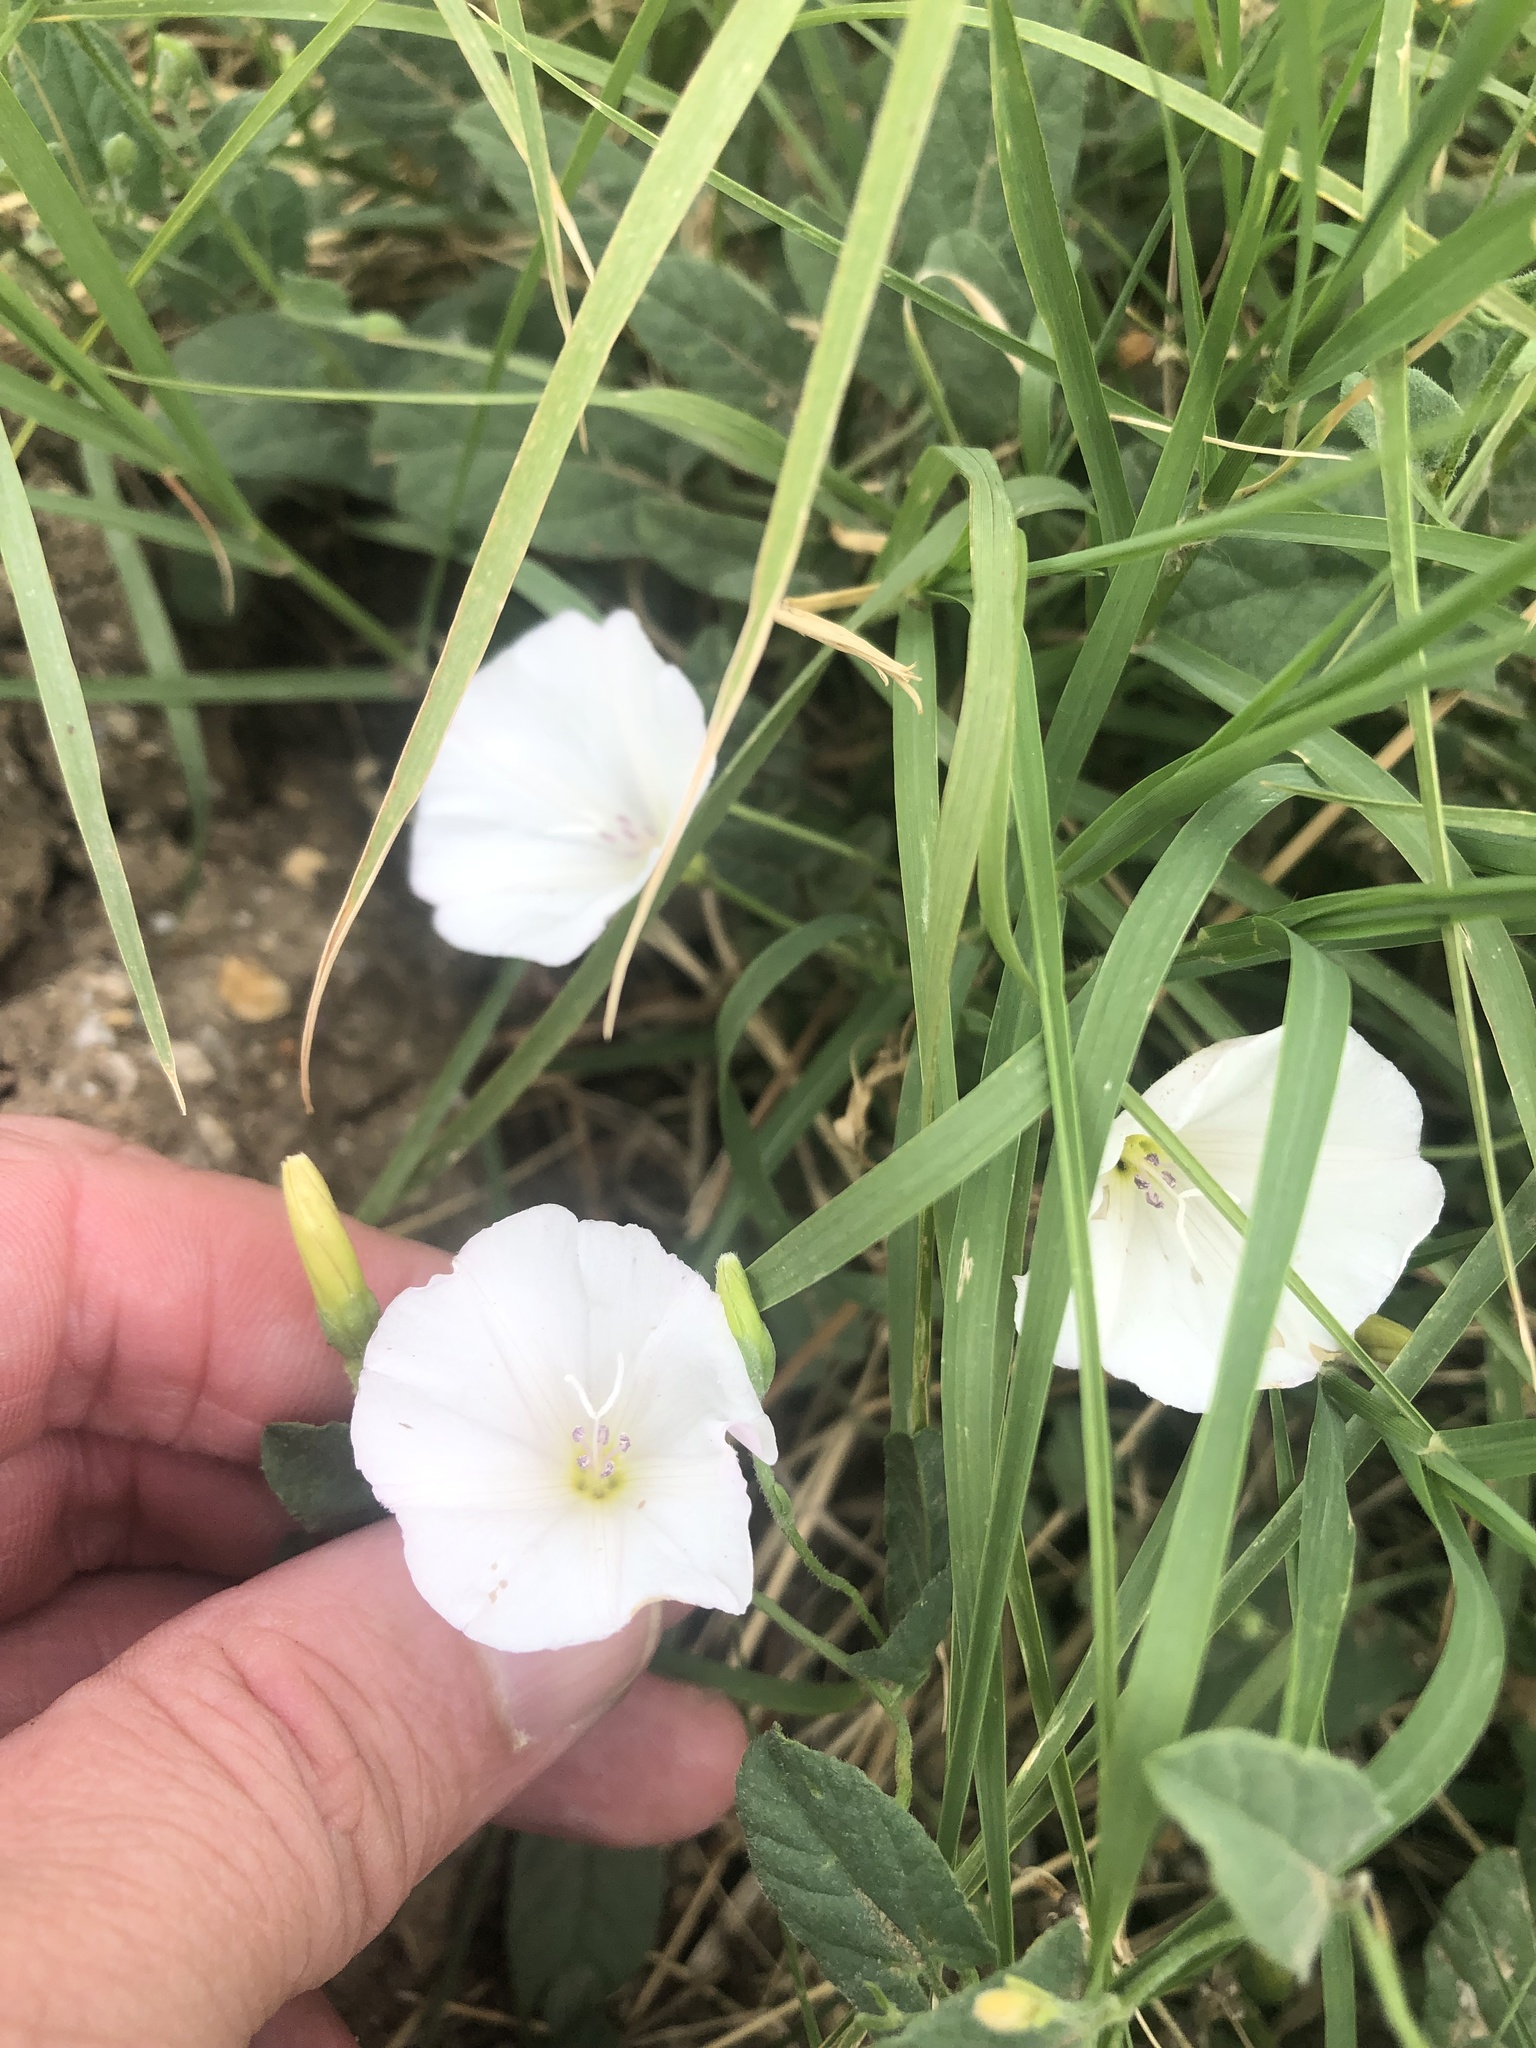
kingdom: Plantae
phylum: Tracheophyta
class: Magnoliopsida
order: Solanales
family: Convolvulaceae
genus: Convolvulus
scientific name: Convolvulus arvensis
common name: Field bindweed
